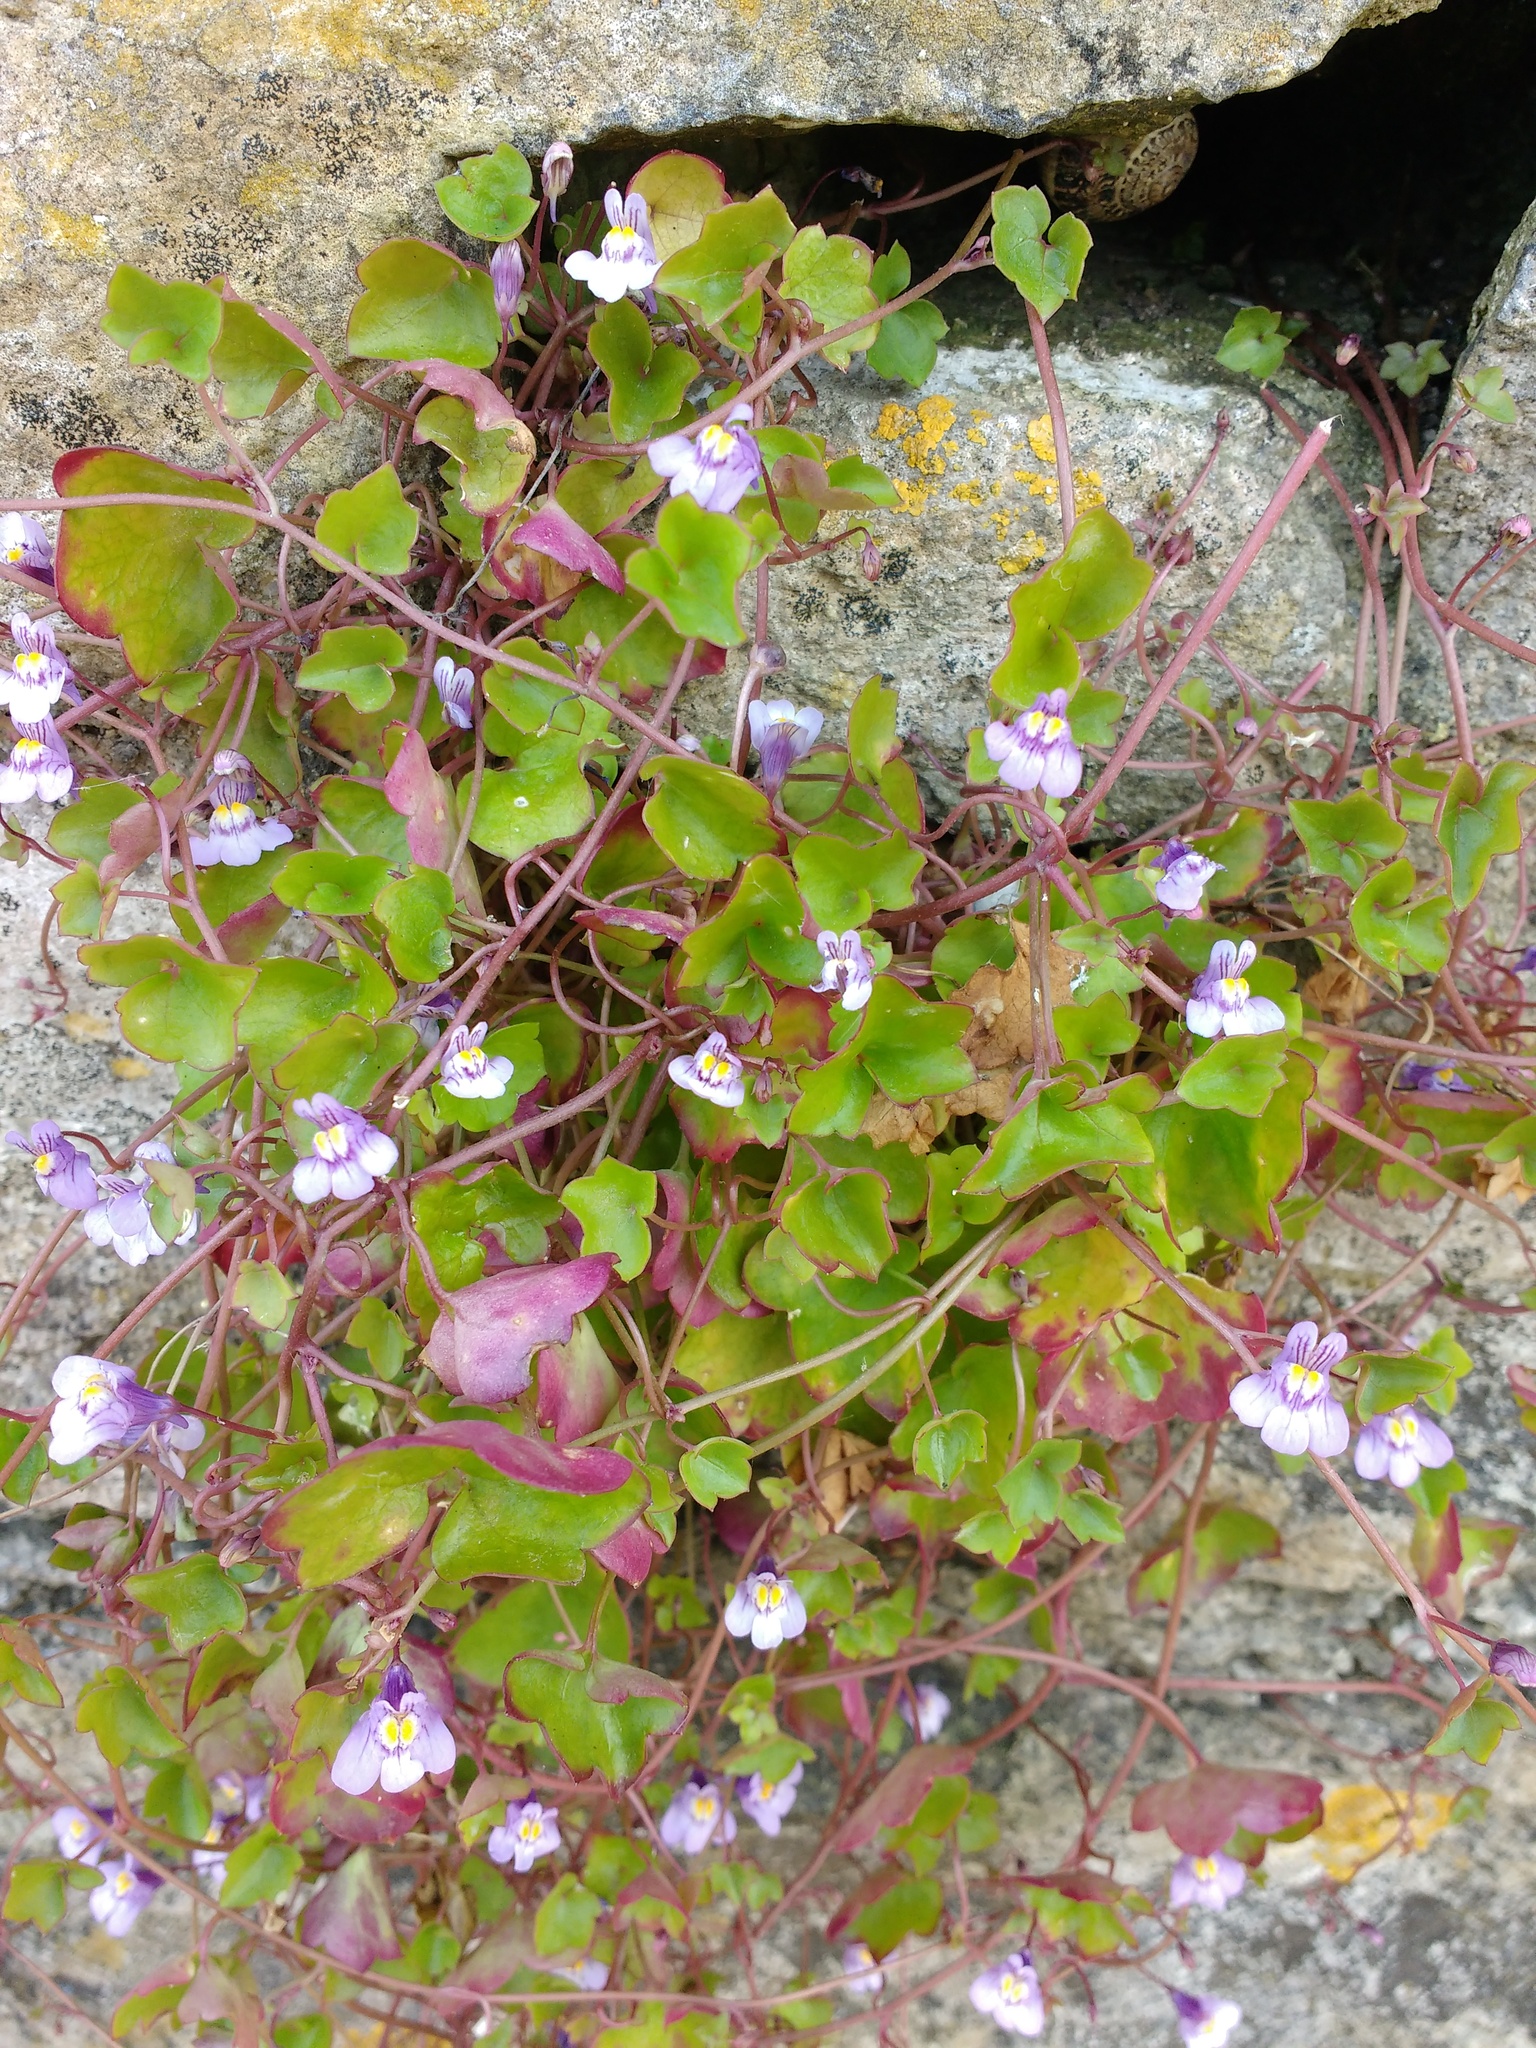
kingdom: Plantae
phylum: Tracheophyta
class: Magnoliopsida
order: Lamiales
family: Plantaginaceae
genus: Cymbalaria
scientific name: Cymbalaria muralis
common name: Ivy-leaved toadflax
